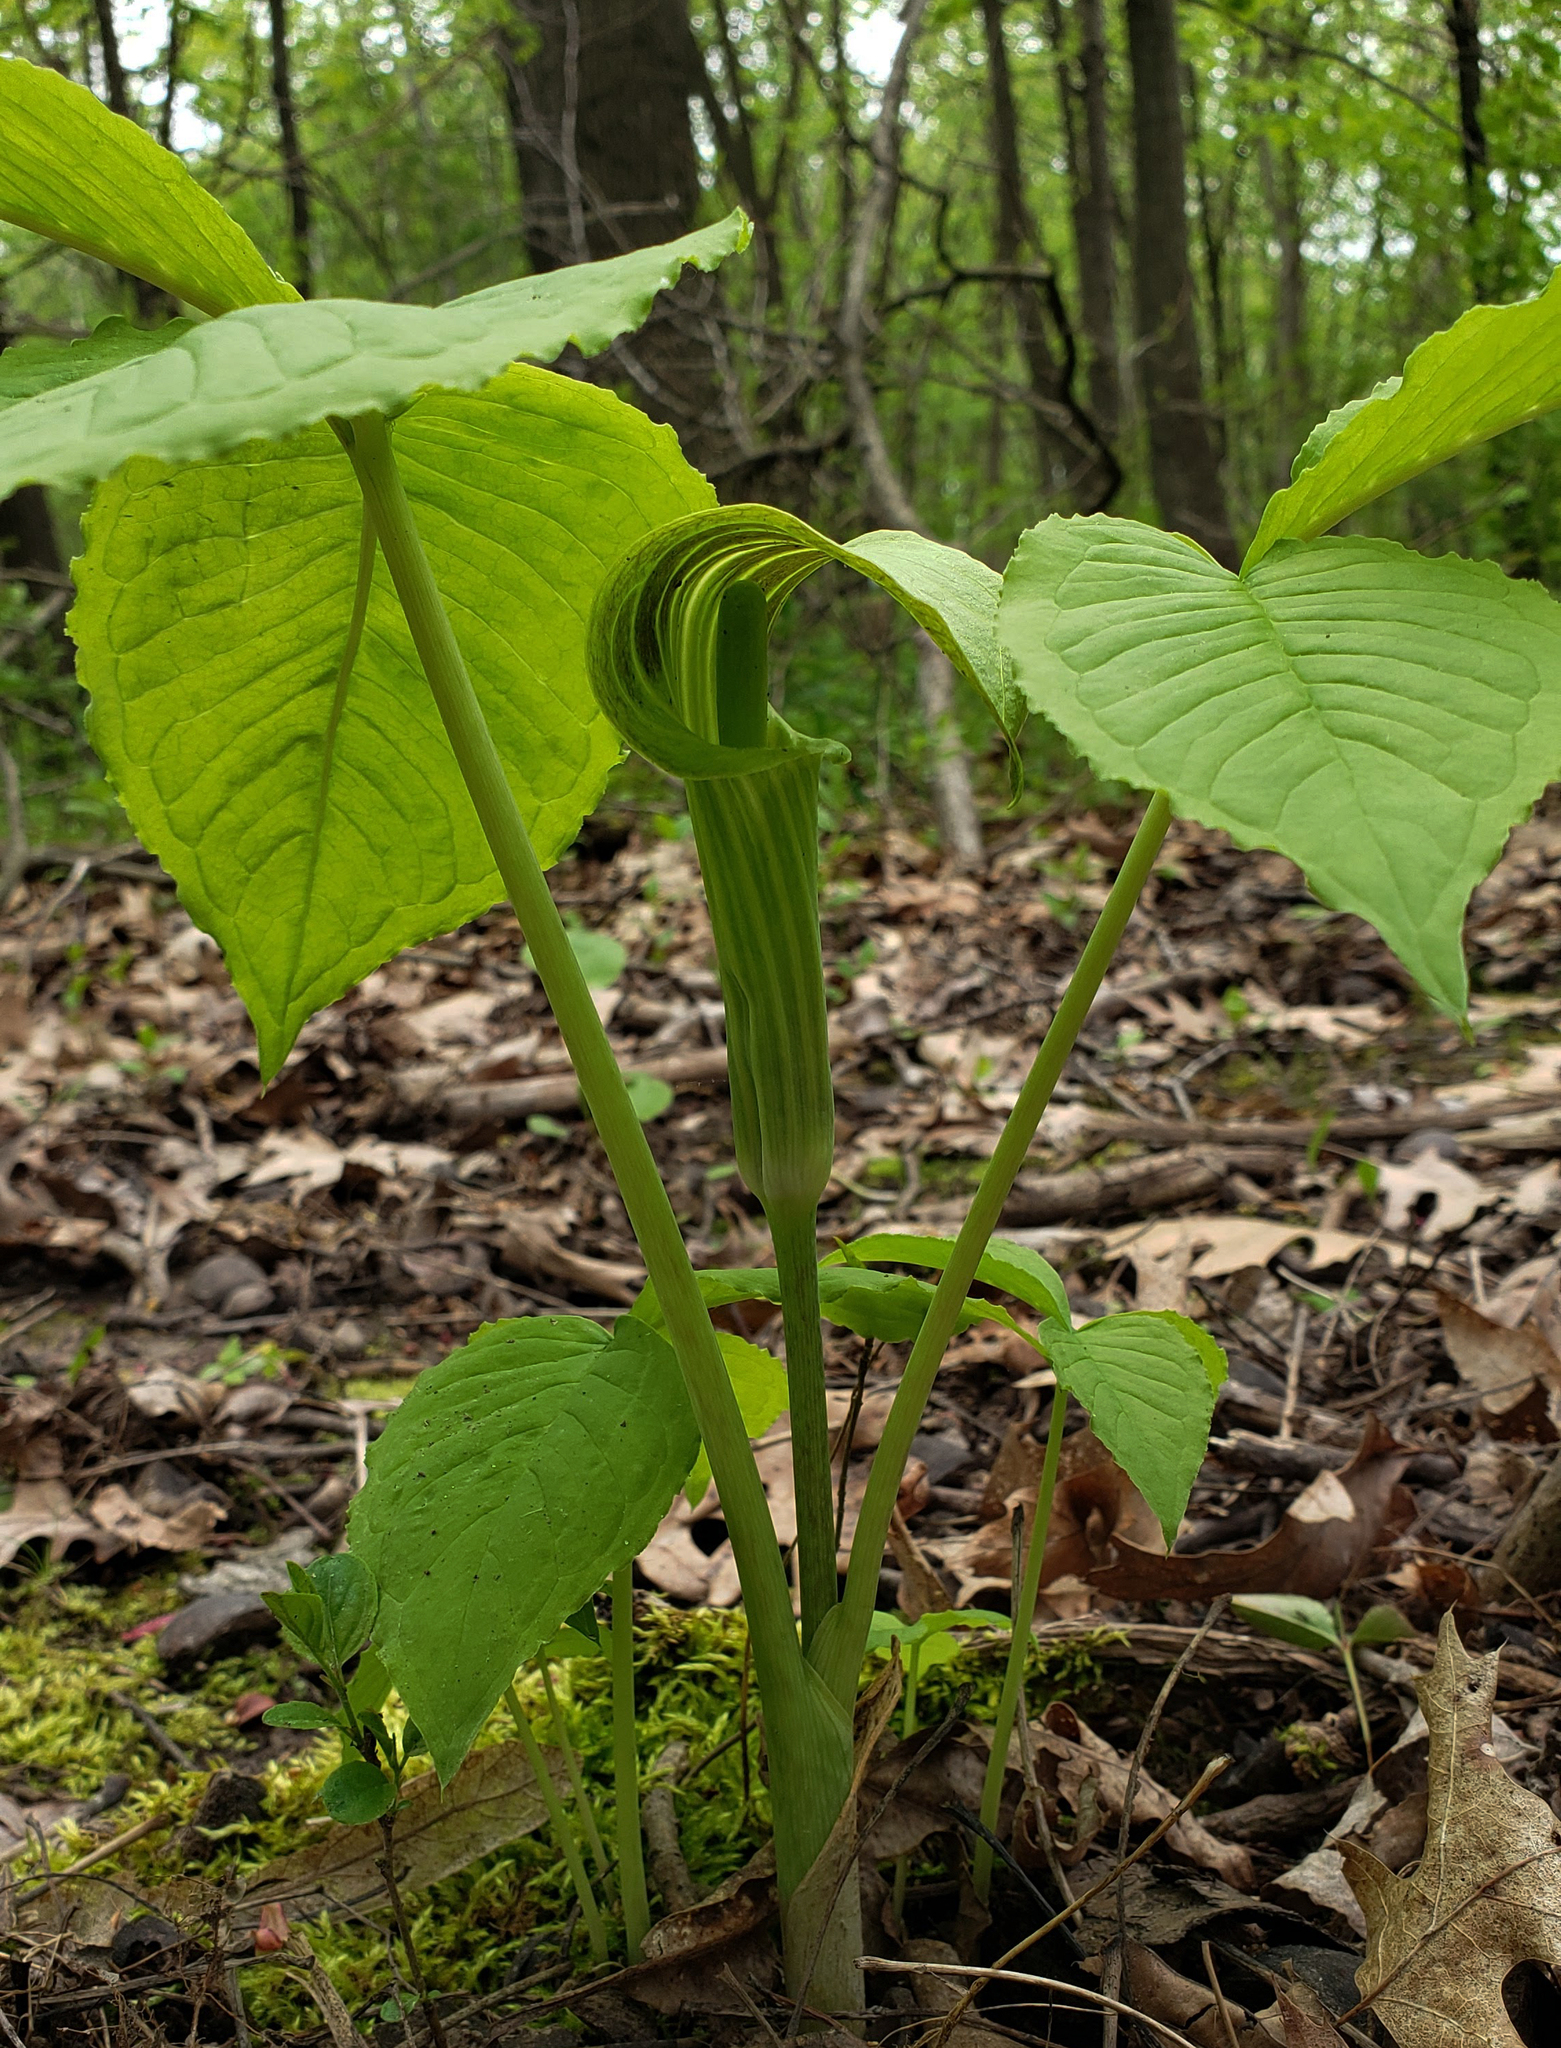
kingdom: Plantae
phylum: Tracheophyta
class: Liliopsida
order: Alismatales
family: Araceae
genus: Arisaema
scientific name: Arisaema triphyllum
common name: Jack-in-the-pulpit
